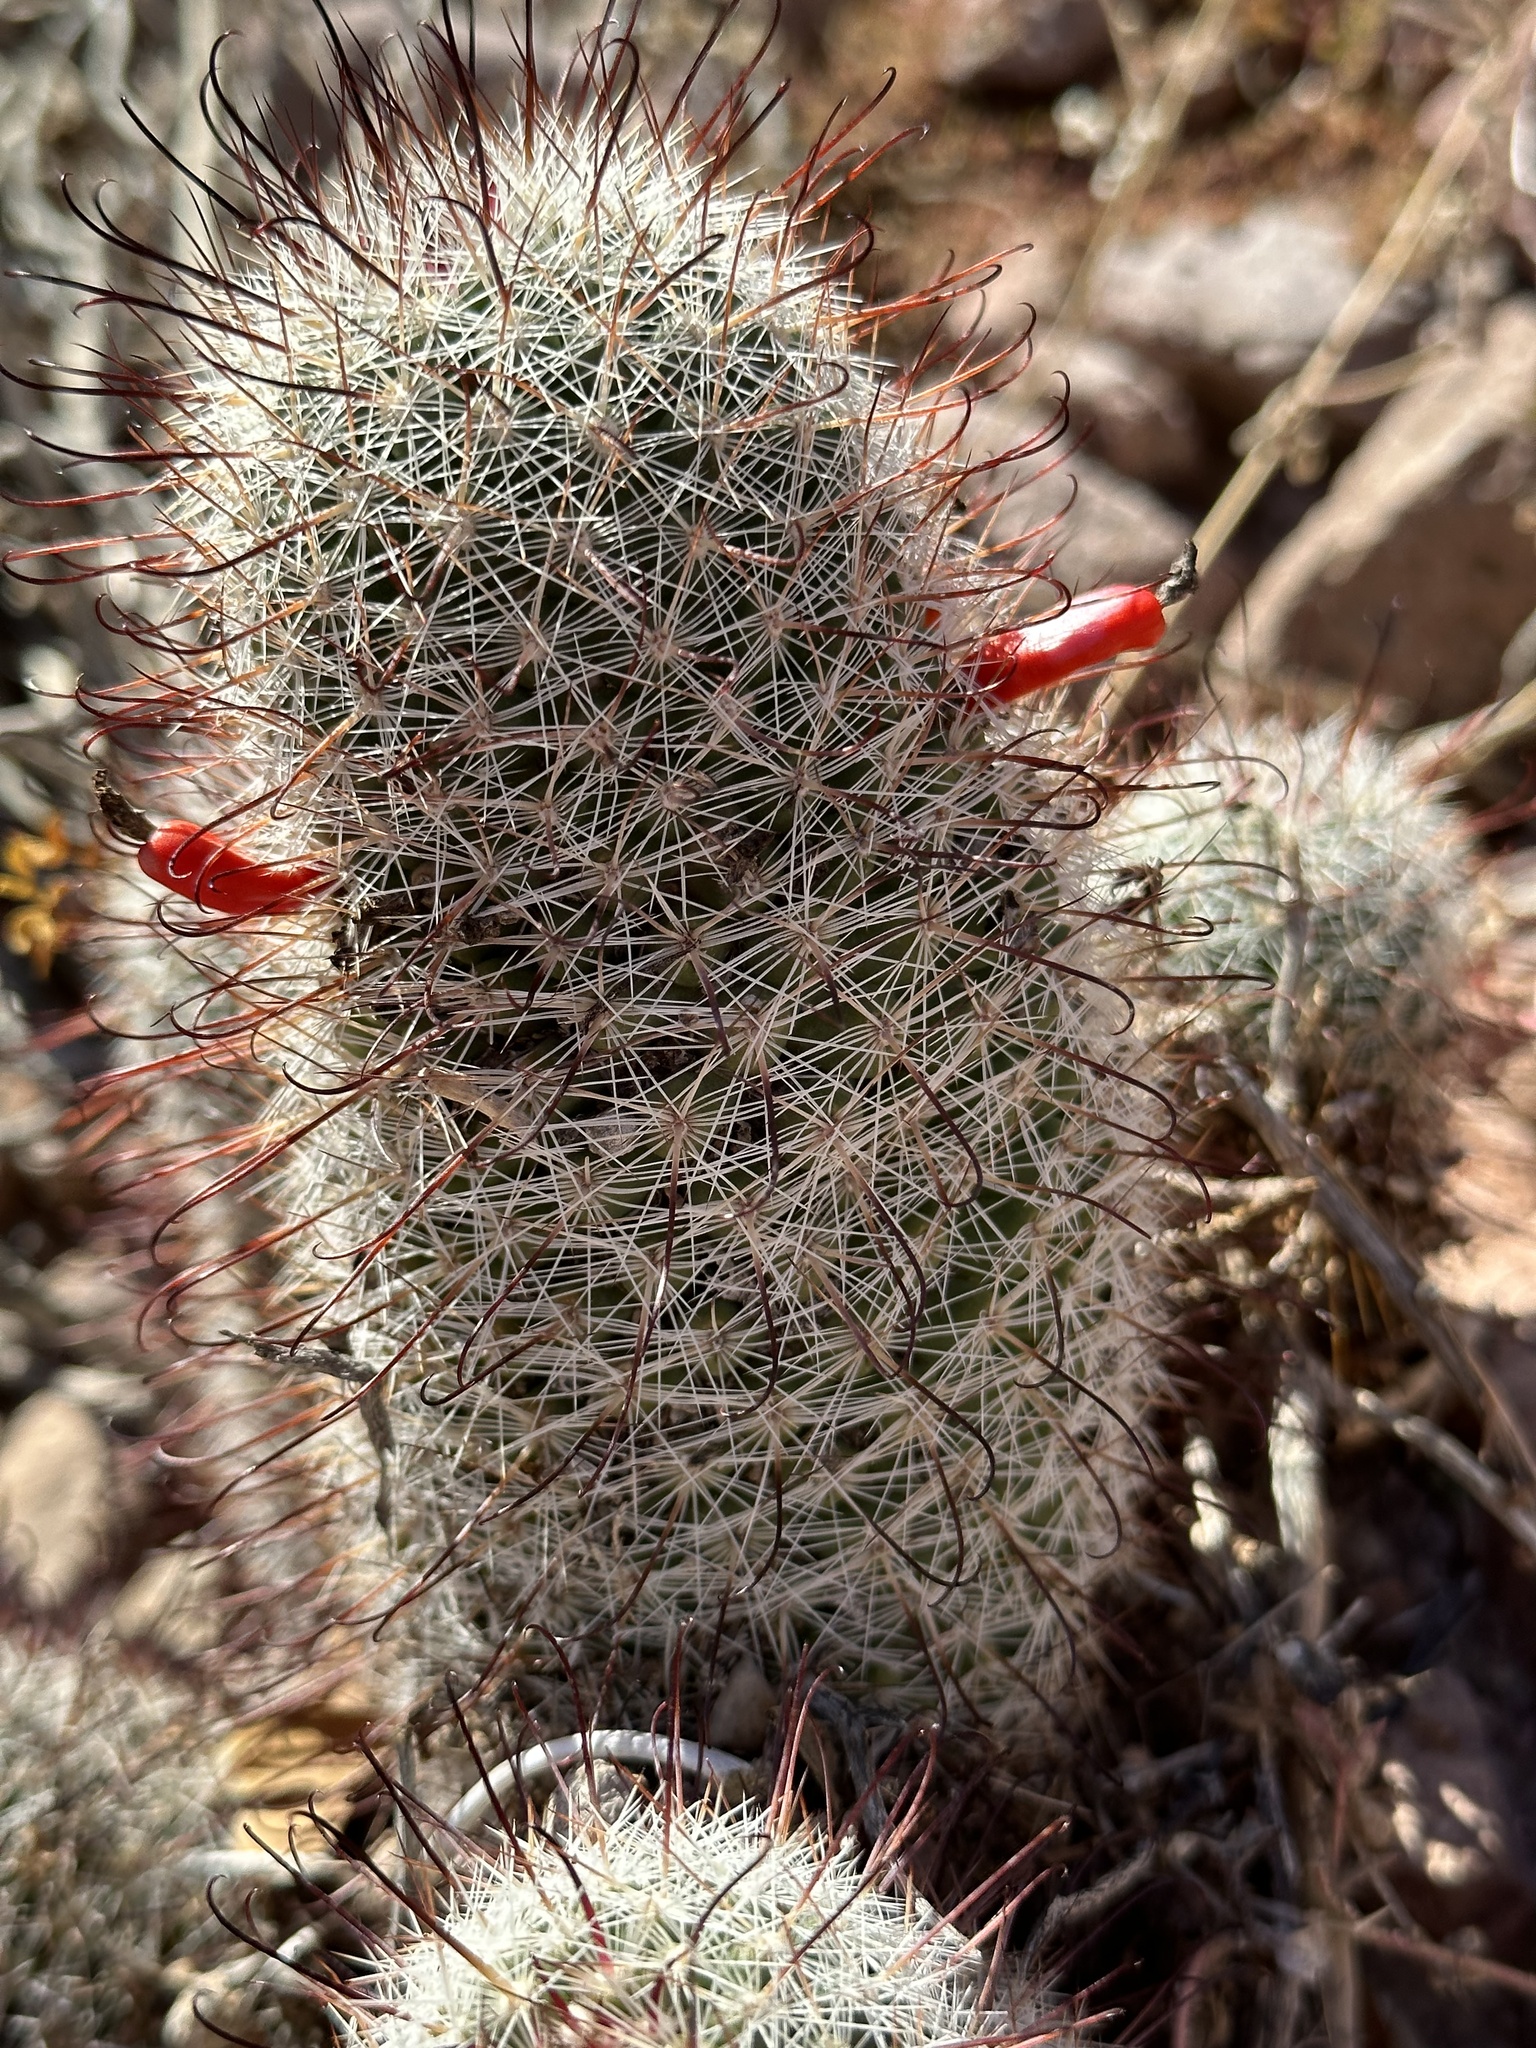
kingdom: Plantae
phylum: Tracheophyta
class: Magnoliopsida
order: Caryophyllales
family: Cactaceae
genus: Cochemiea
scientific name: Cochemiea grahamii
